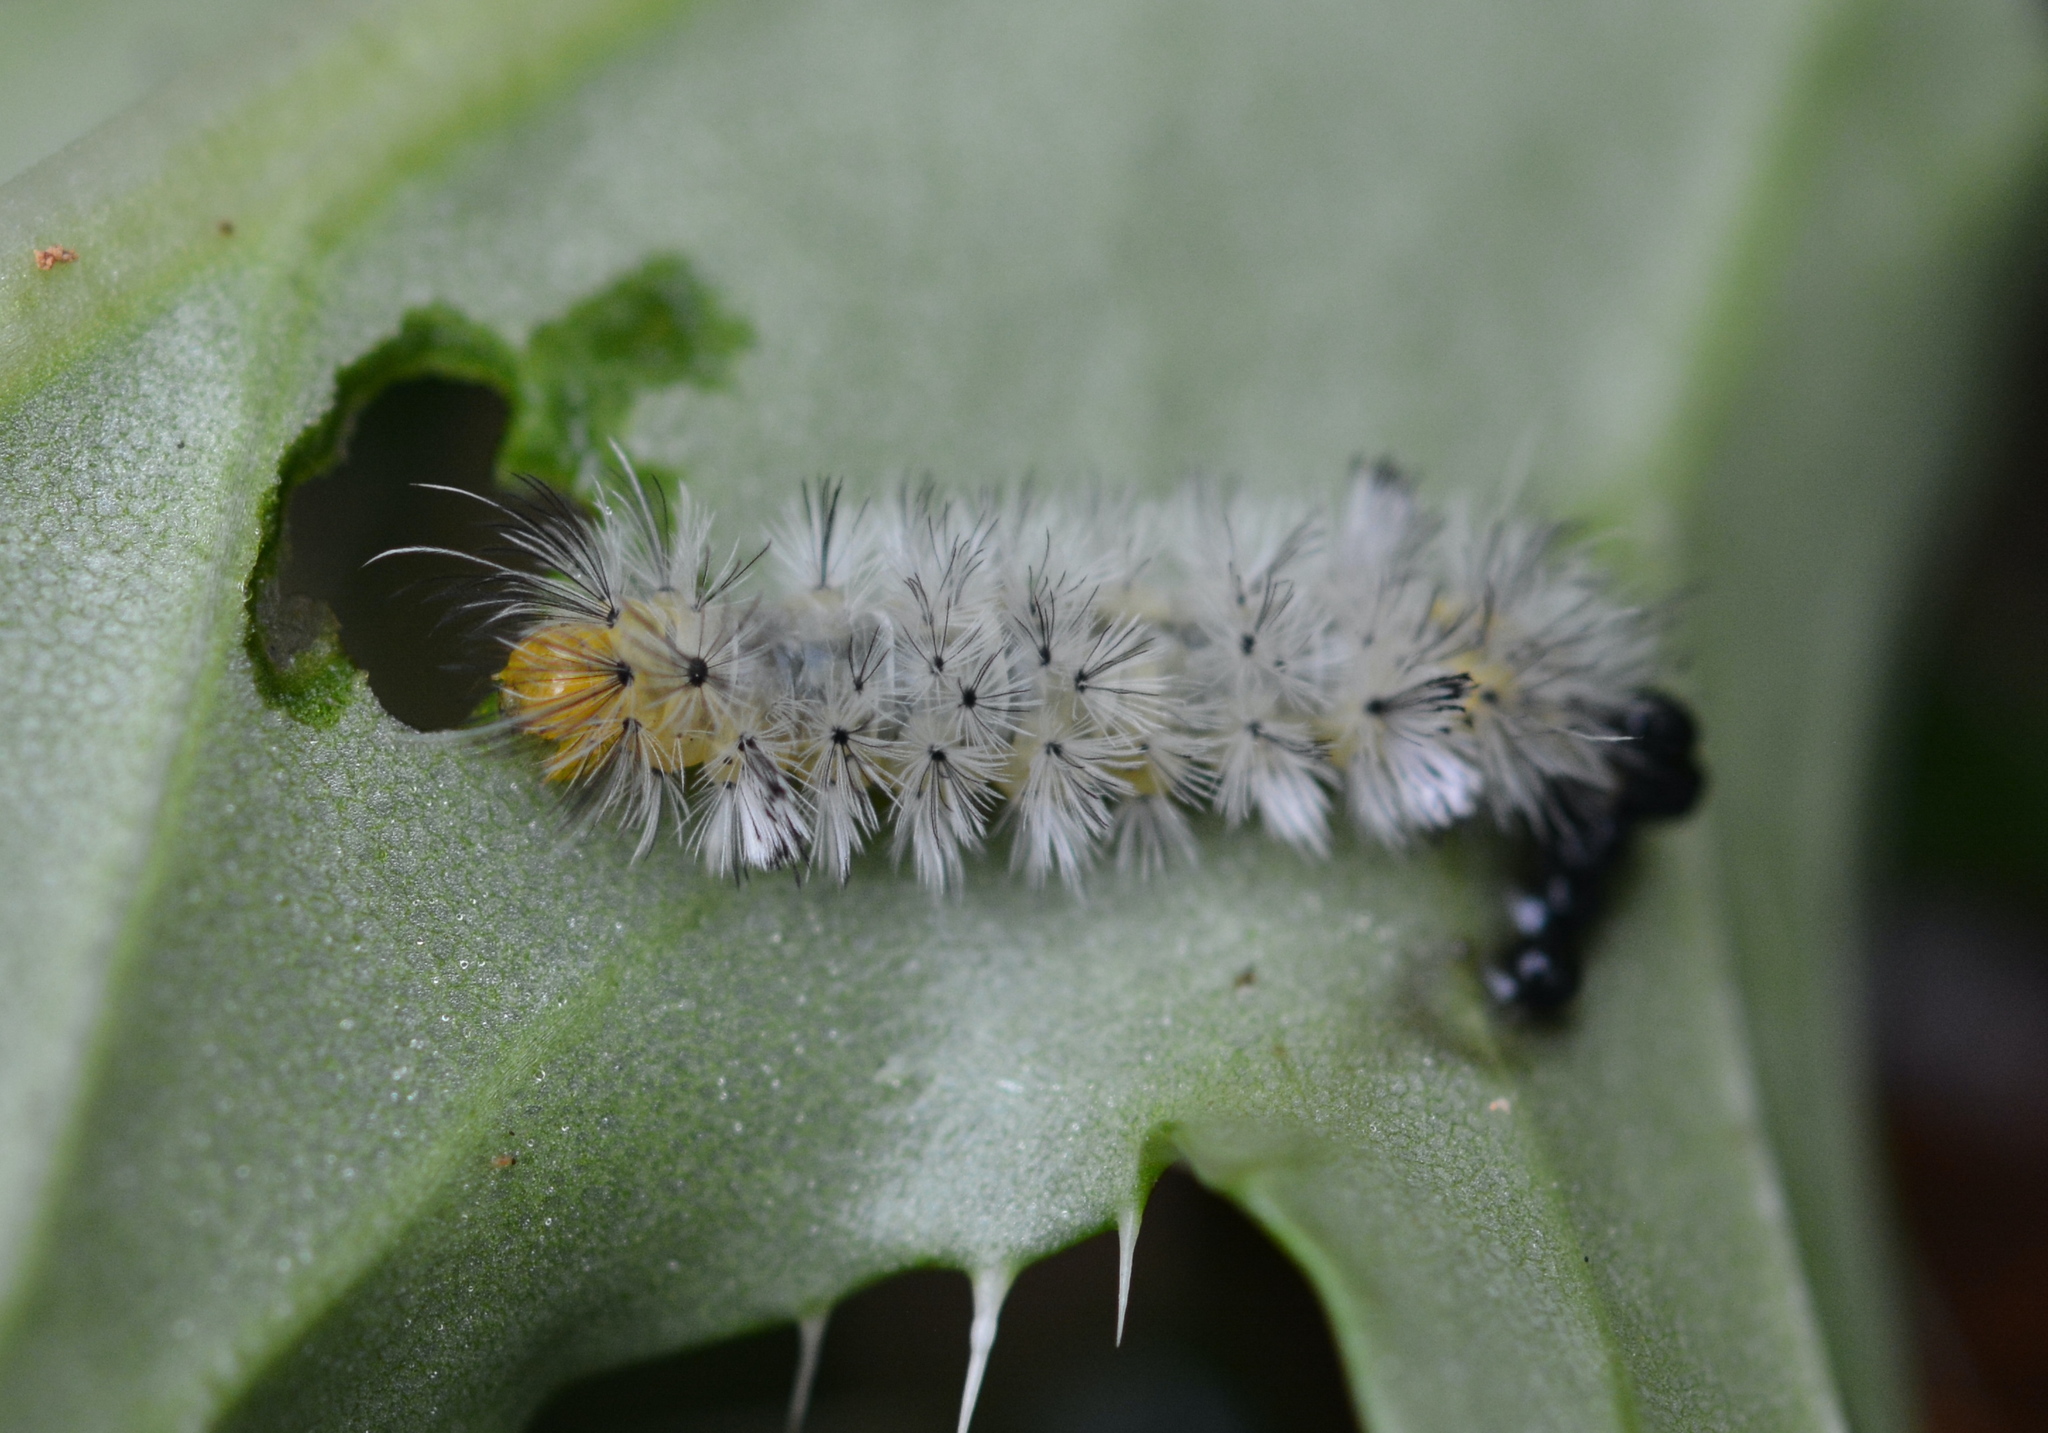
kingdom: Animalia
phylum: Arthropoda
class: Insecta
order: Lepidoptera
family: Erebidae
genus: Cosmosoma
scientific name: Cosmosoma myrodora
